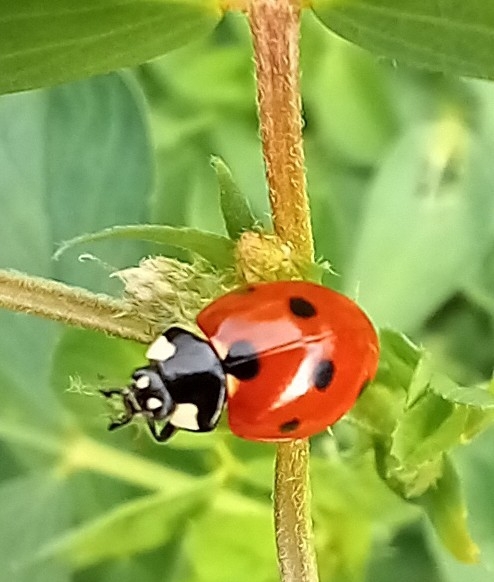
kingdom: Animalia
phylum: Arthropoda
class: Insecta
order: Coleoptera
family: Coccinellidae
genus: Coccinella
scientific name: Coccinella septempunctata
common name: Sevenspotted lady beetle
